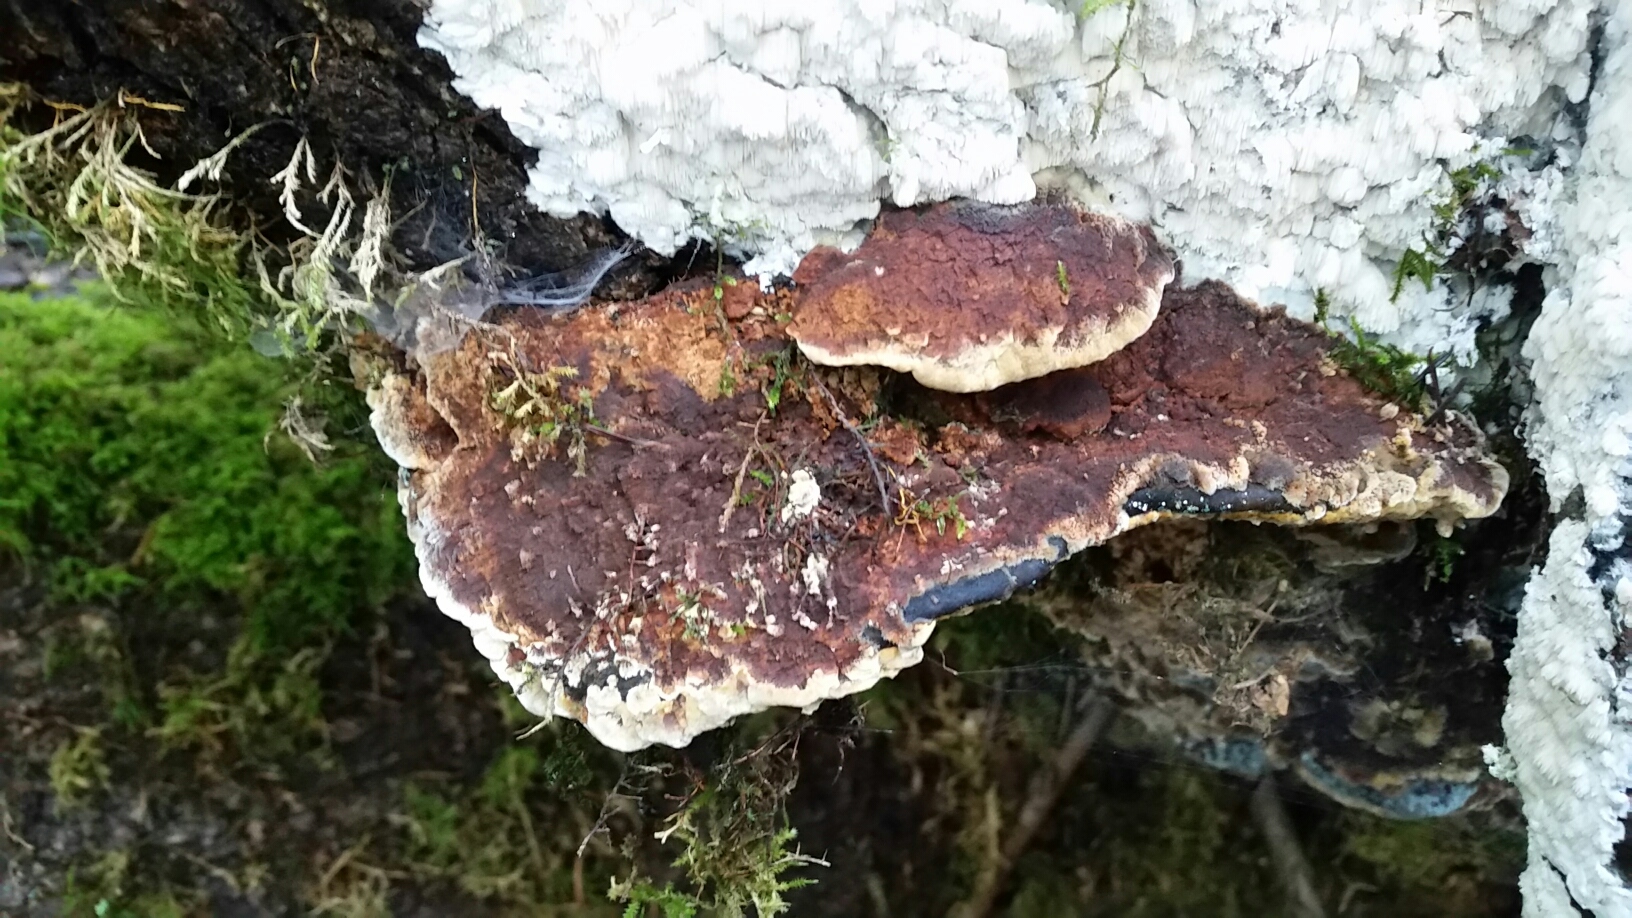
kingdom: Fungi
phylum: Basidiomycota
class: Agaricomycetes
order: Hymenochaetales
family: Hymenochaetaceae
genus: Phellinus
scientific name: Phellinus gilvus
